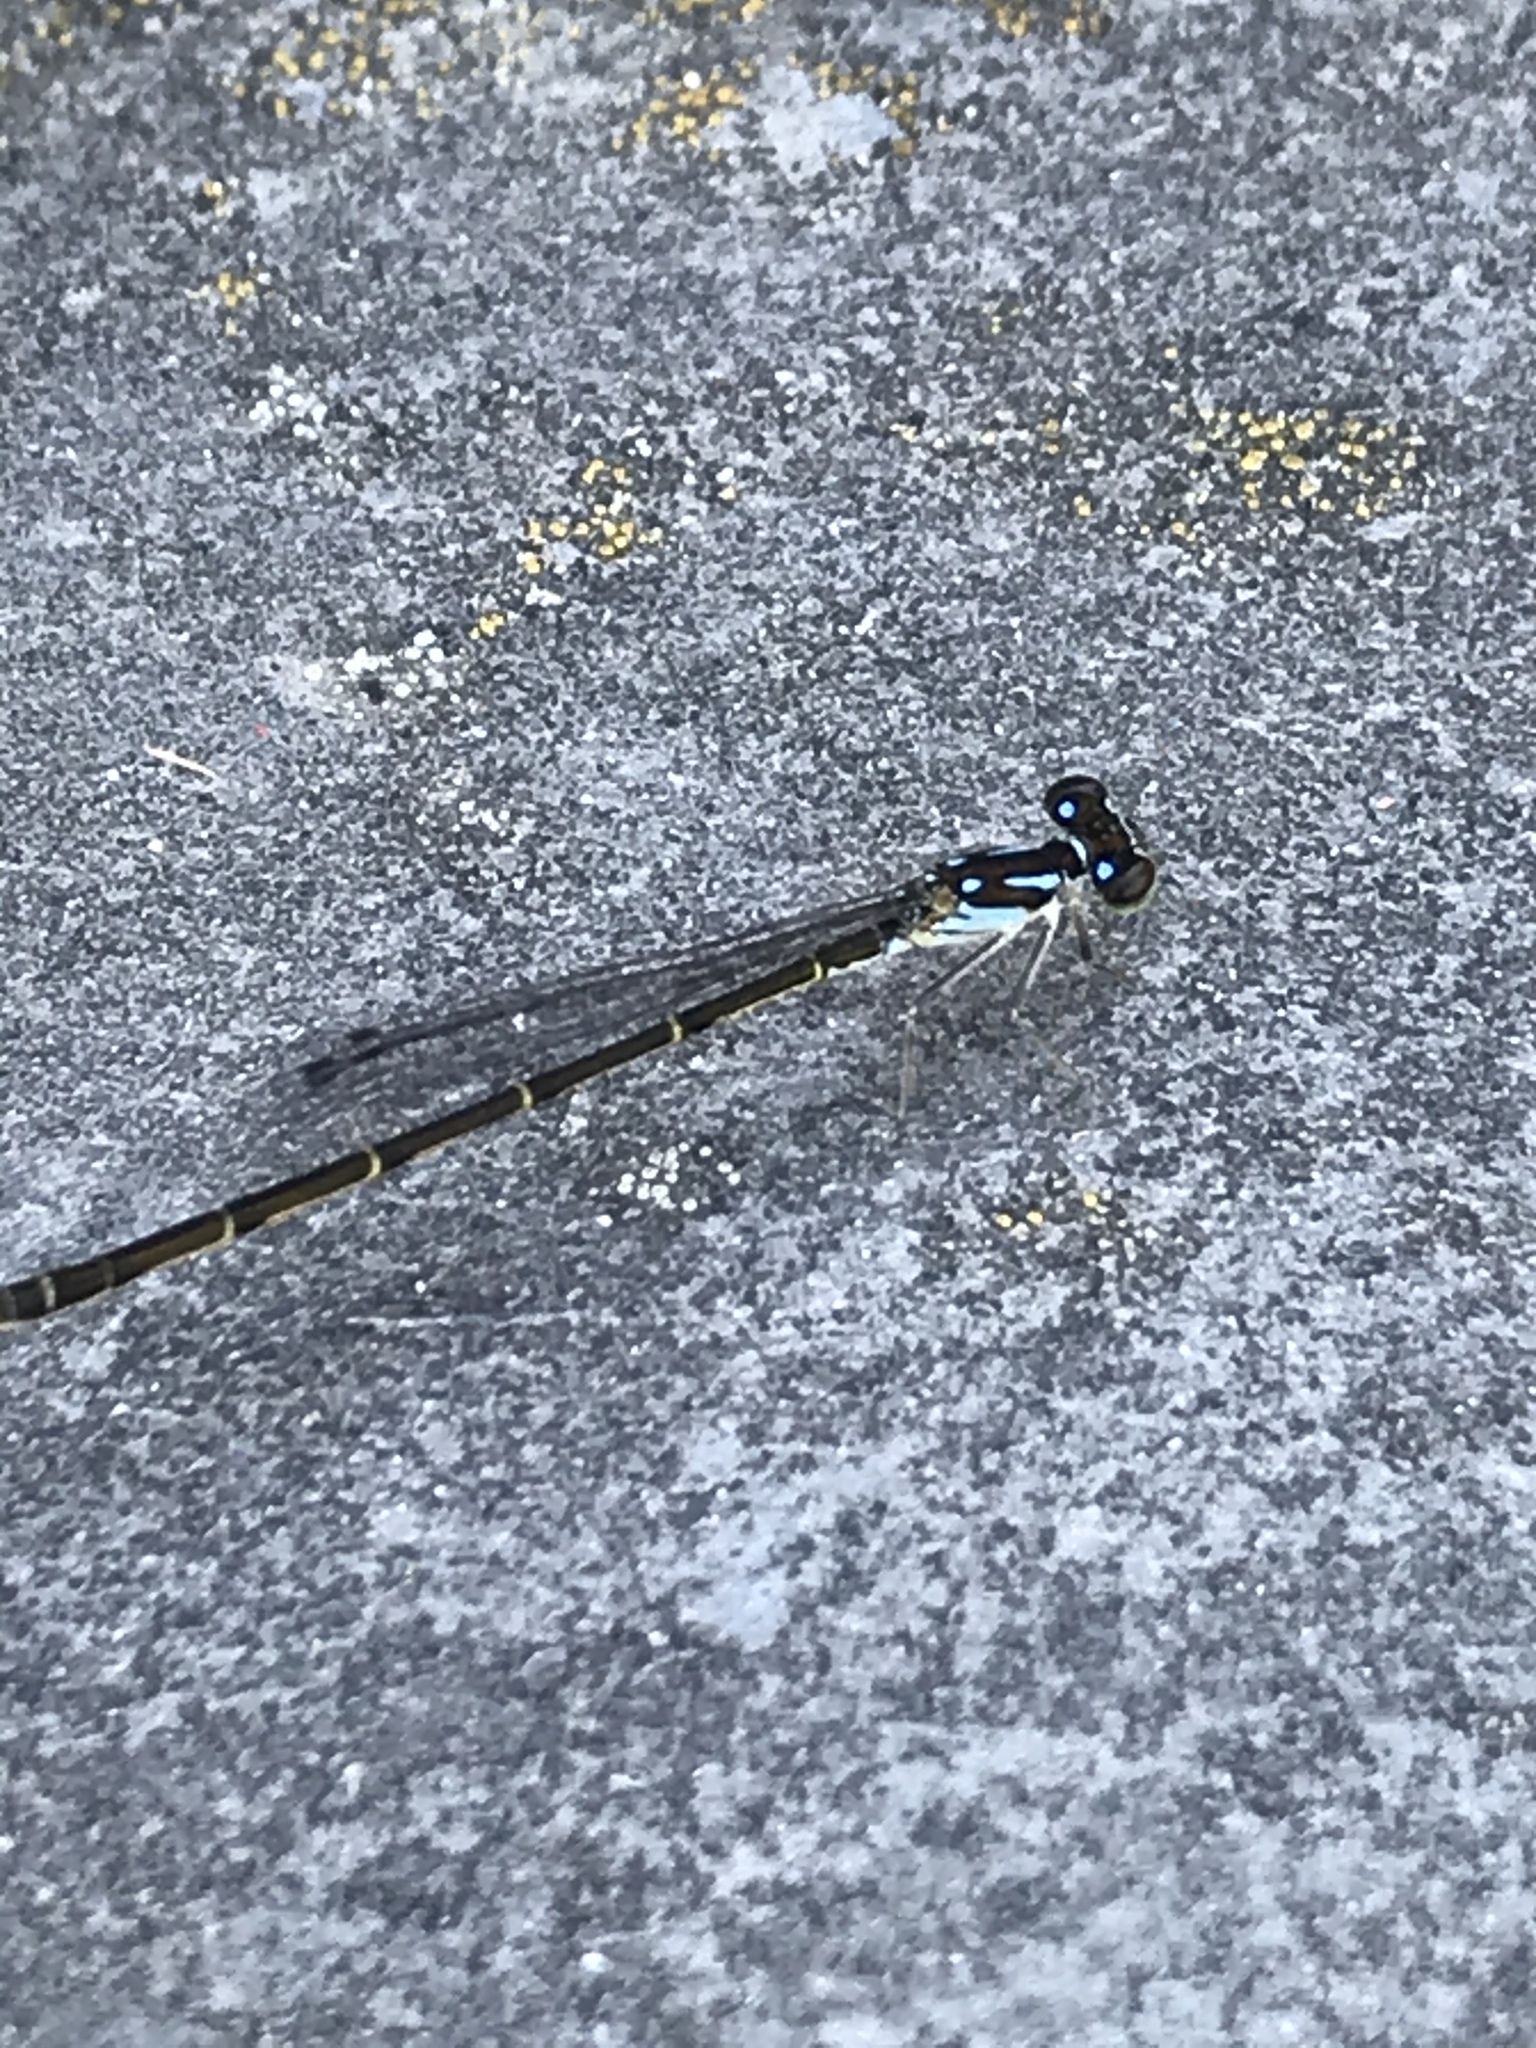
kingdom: Animalia
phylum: Arthropoda
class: Insecta
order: Odonata
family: Coenagrionidae
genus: Ischnura
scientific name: Ischnura posita
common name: Fragile forktail
